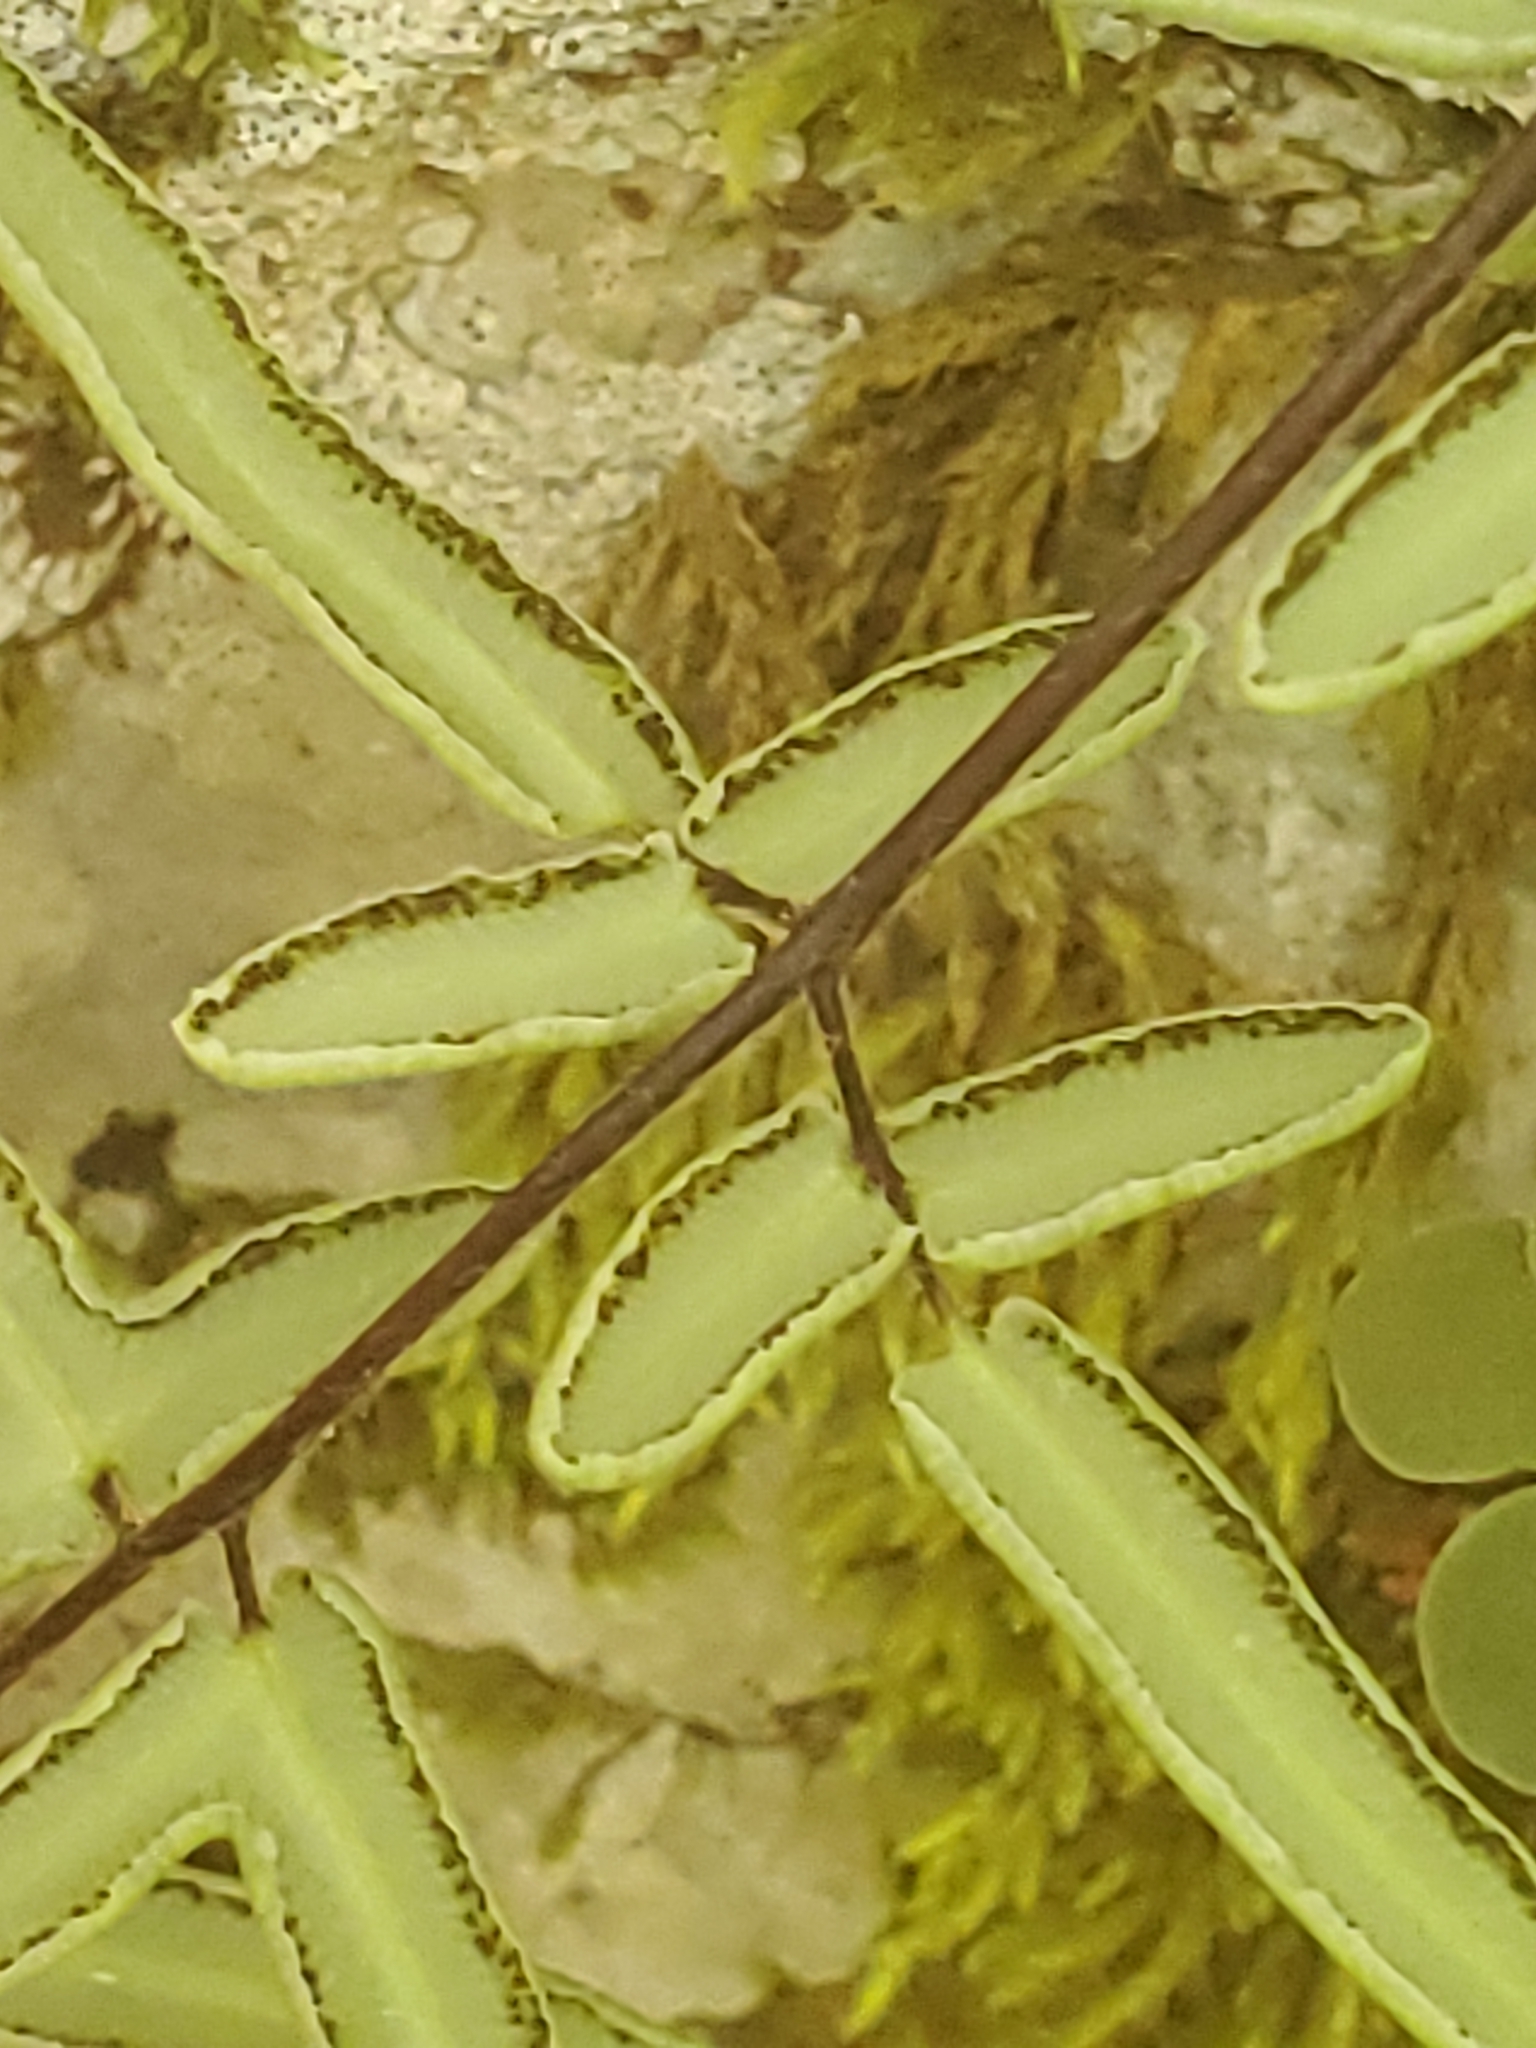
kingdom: Plantae
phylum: Tracheophyta
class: Polypodiopsida
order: Polypodiales
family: Pteridaceae
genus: Pellaea
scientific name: Pellaea atropurpurea
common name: Hairy cliffbrake
